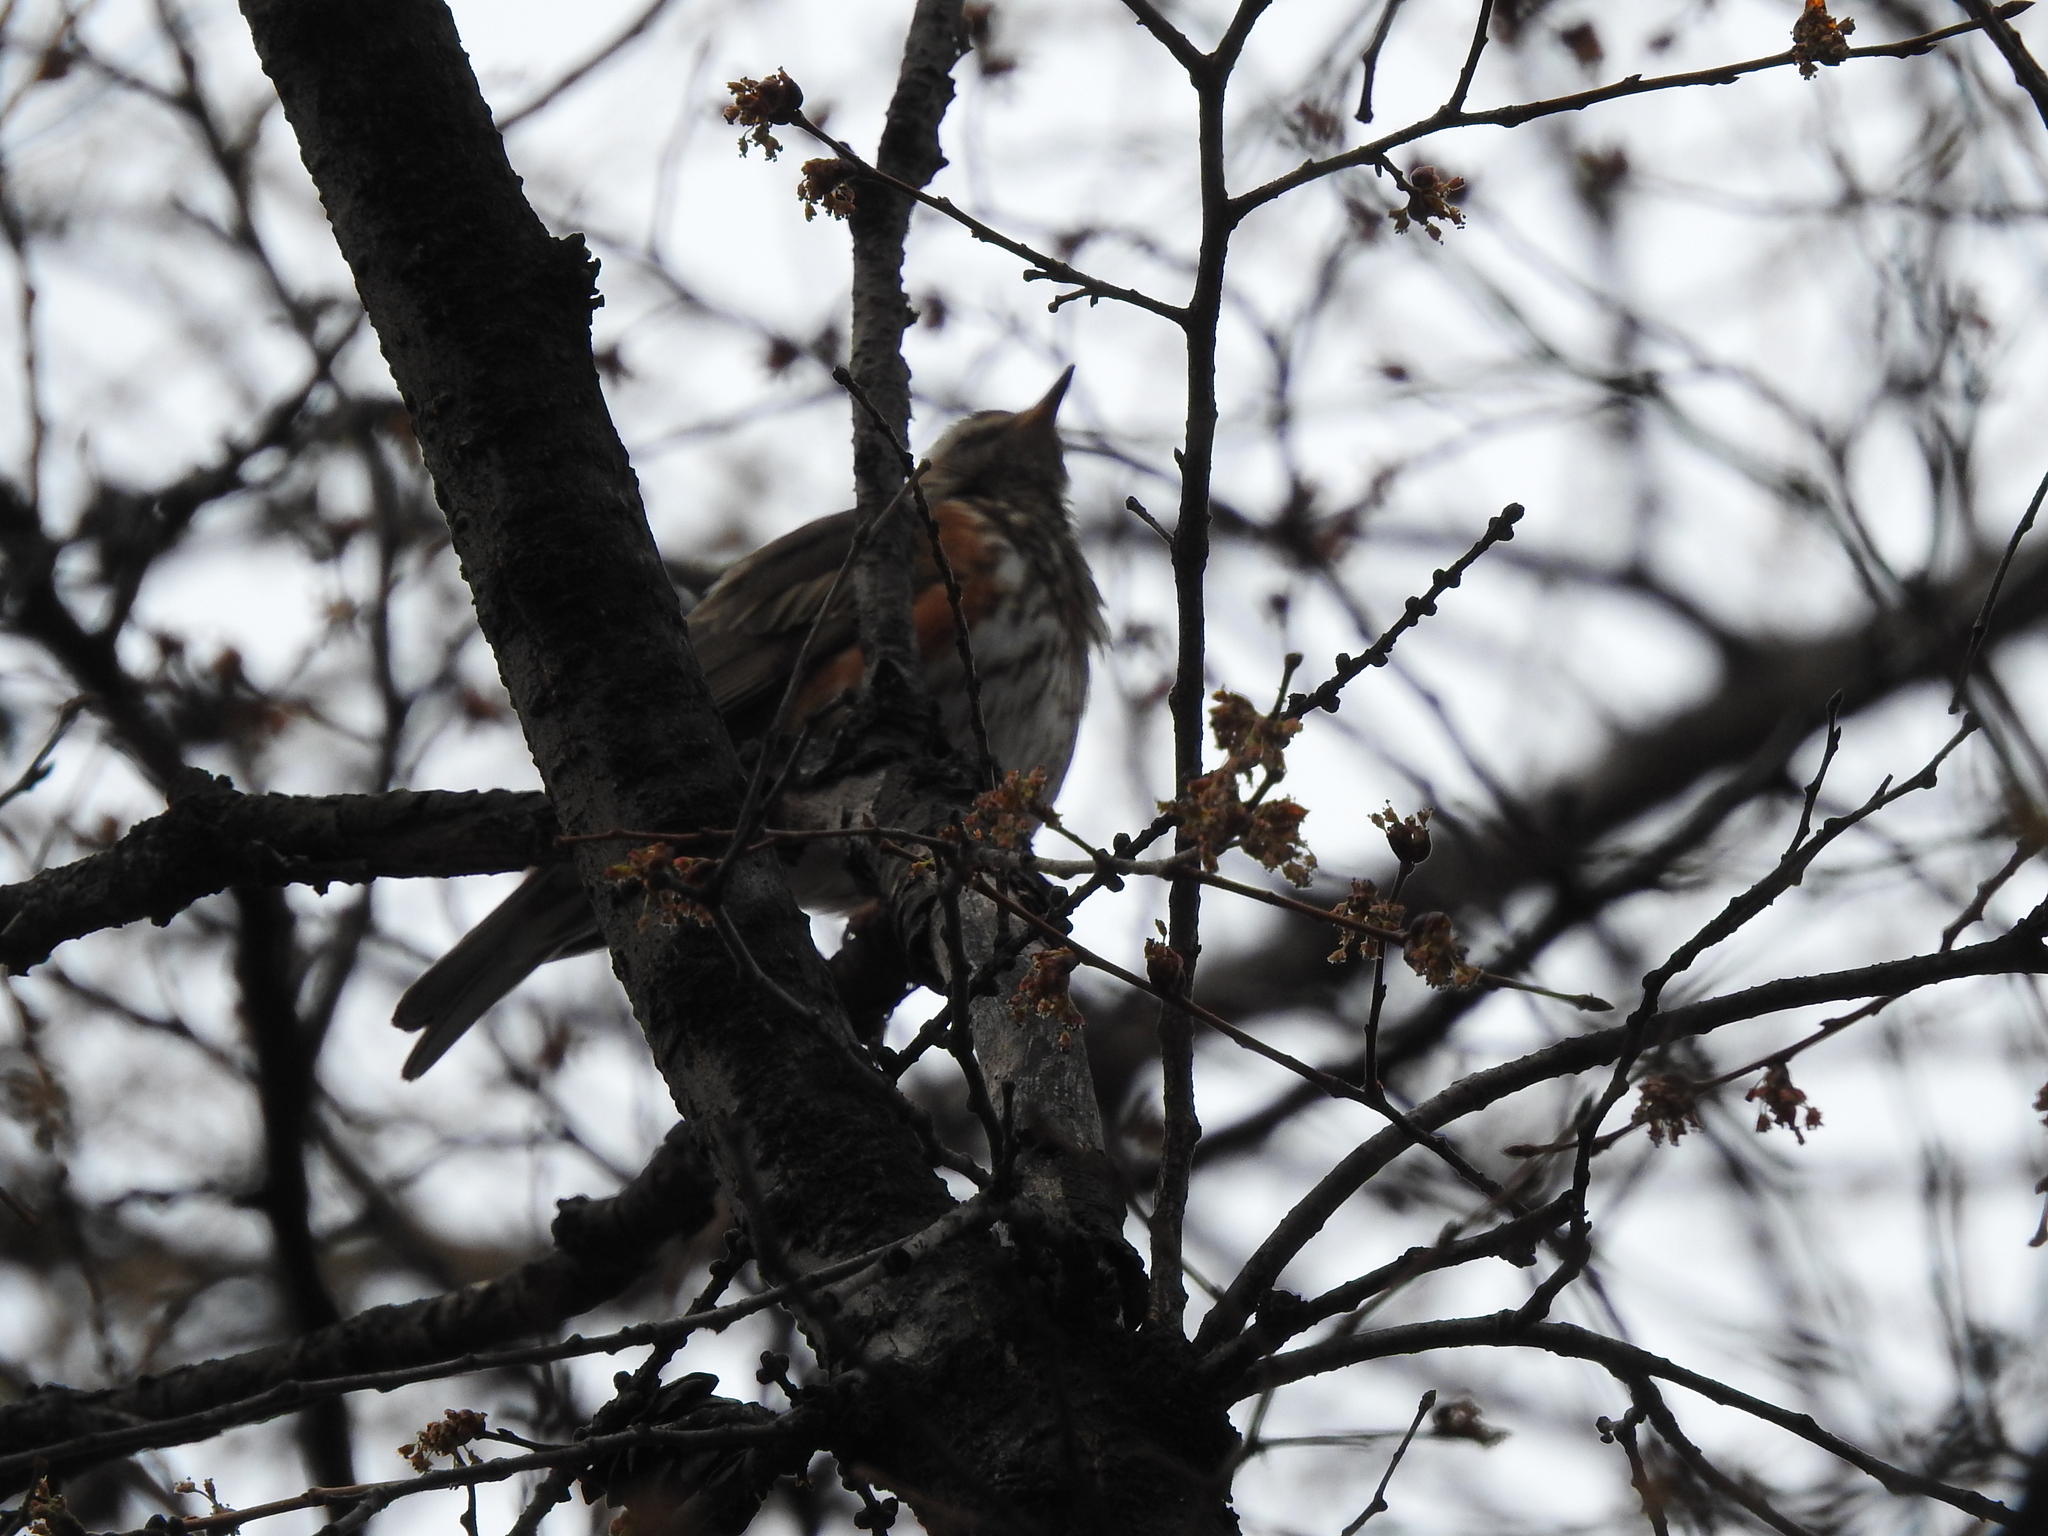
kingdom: Animalia
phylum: Chordata
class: Aves
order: Passeriformes
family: Turdidae
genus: Turdus
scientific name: Turdus iliacus
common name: Redwing
